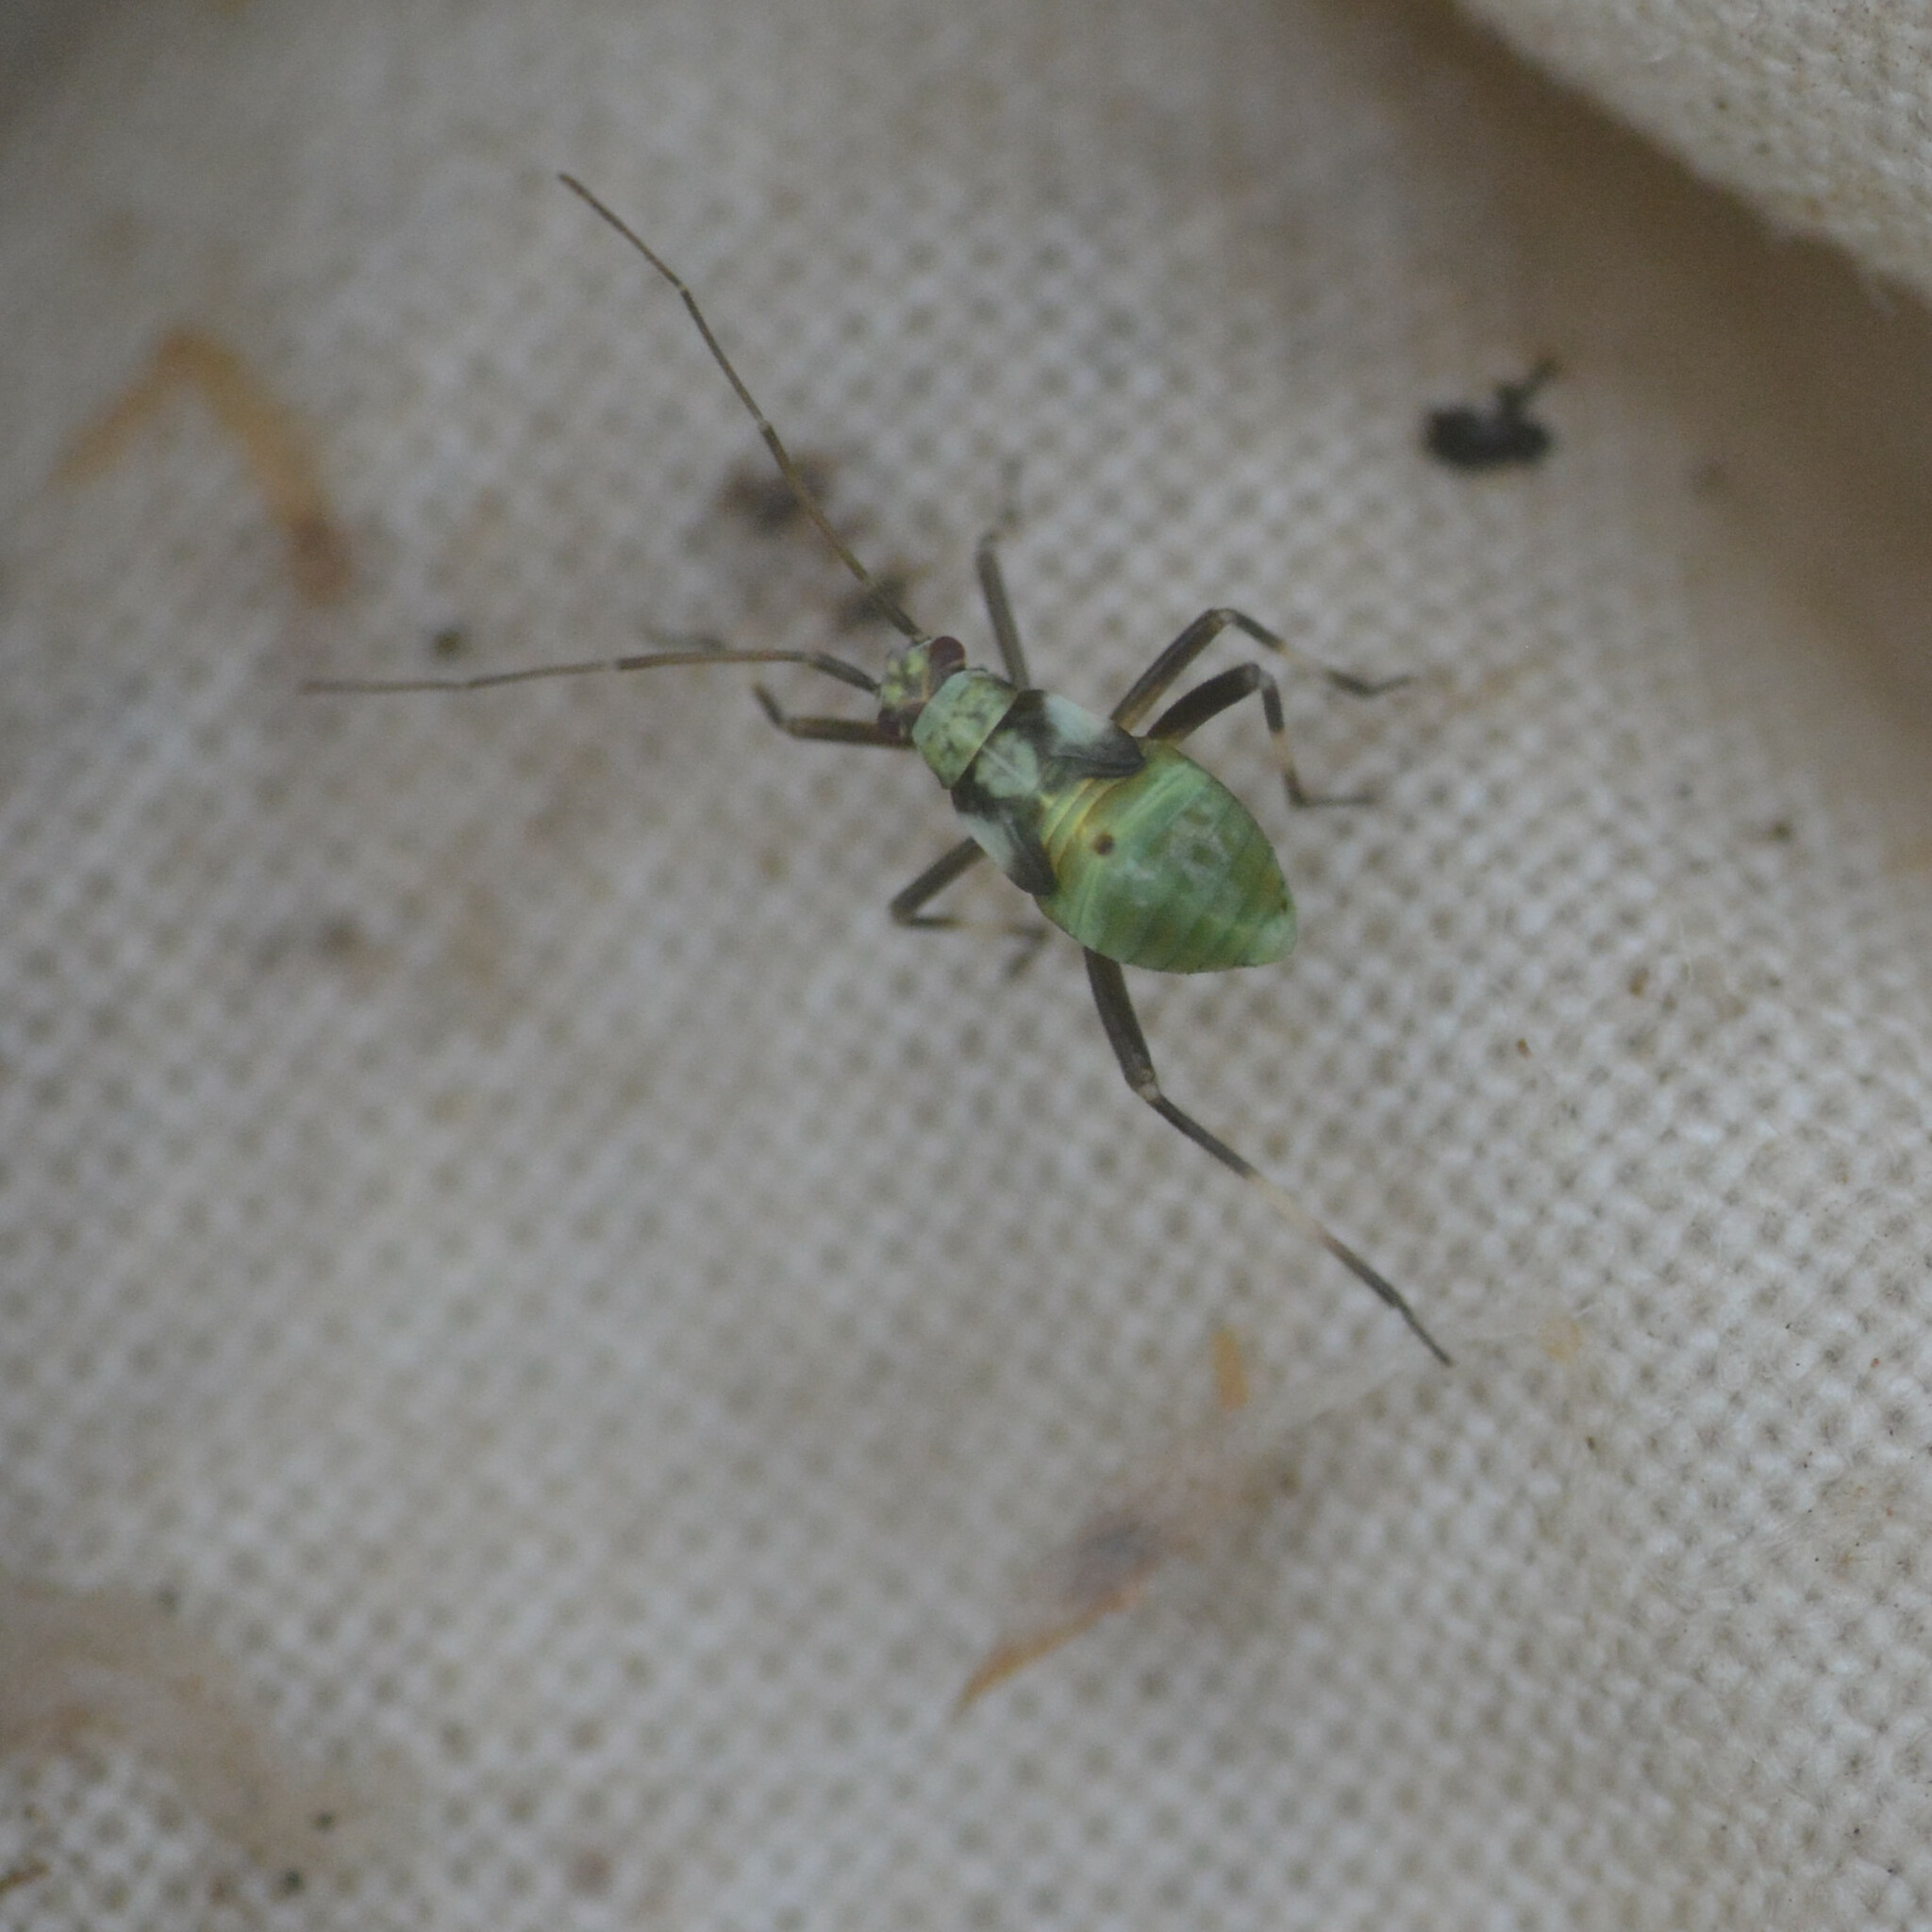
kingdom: Animalia
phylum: Arthropoda
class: Insecta
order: Hemiptera
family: Miridae
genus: Calocoris
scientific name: Calocoris alpestris
